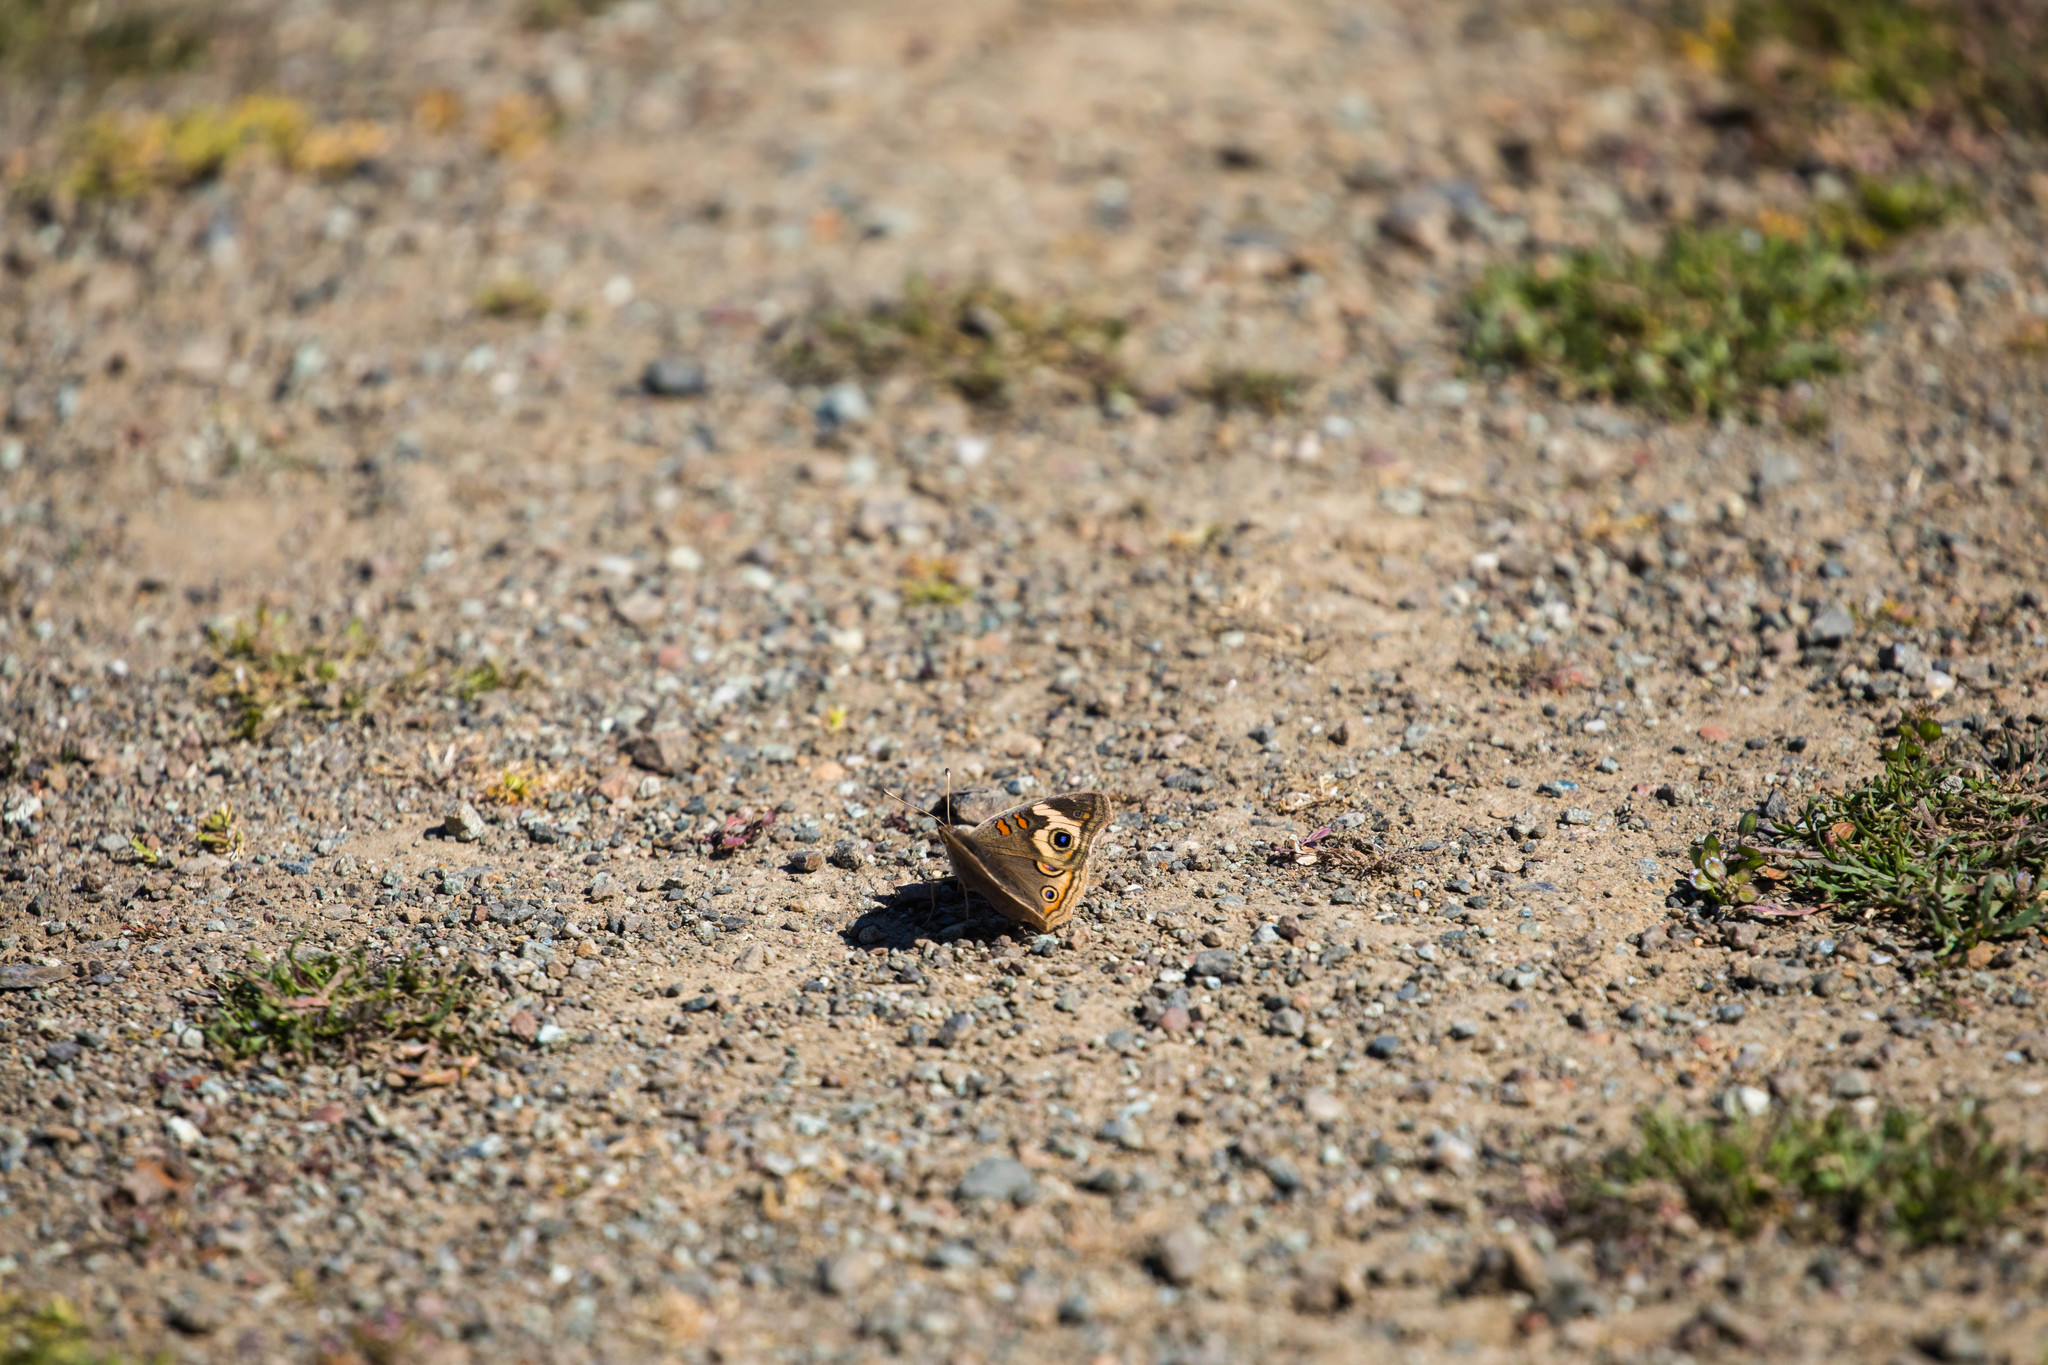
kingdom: Animalia
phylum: Arthropoda
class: Insecta
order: Lepidoptera
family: Nymphalidae
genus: Junonia
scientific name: Junonia grisea
